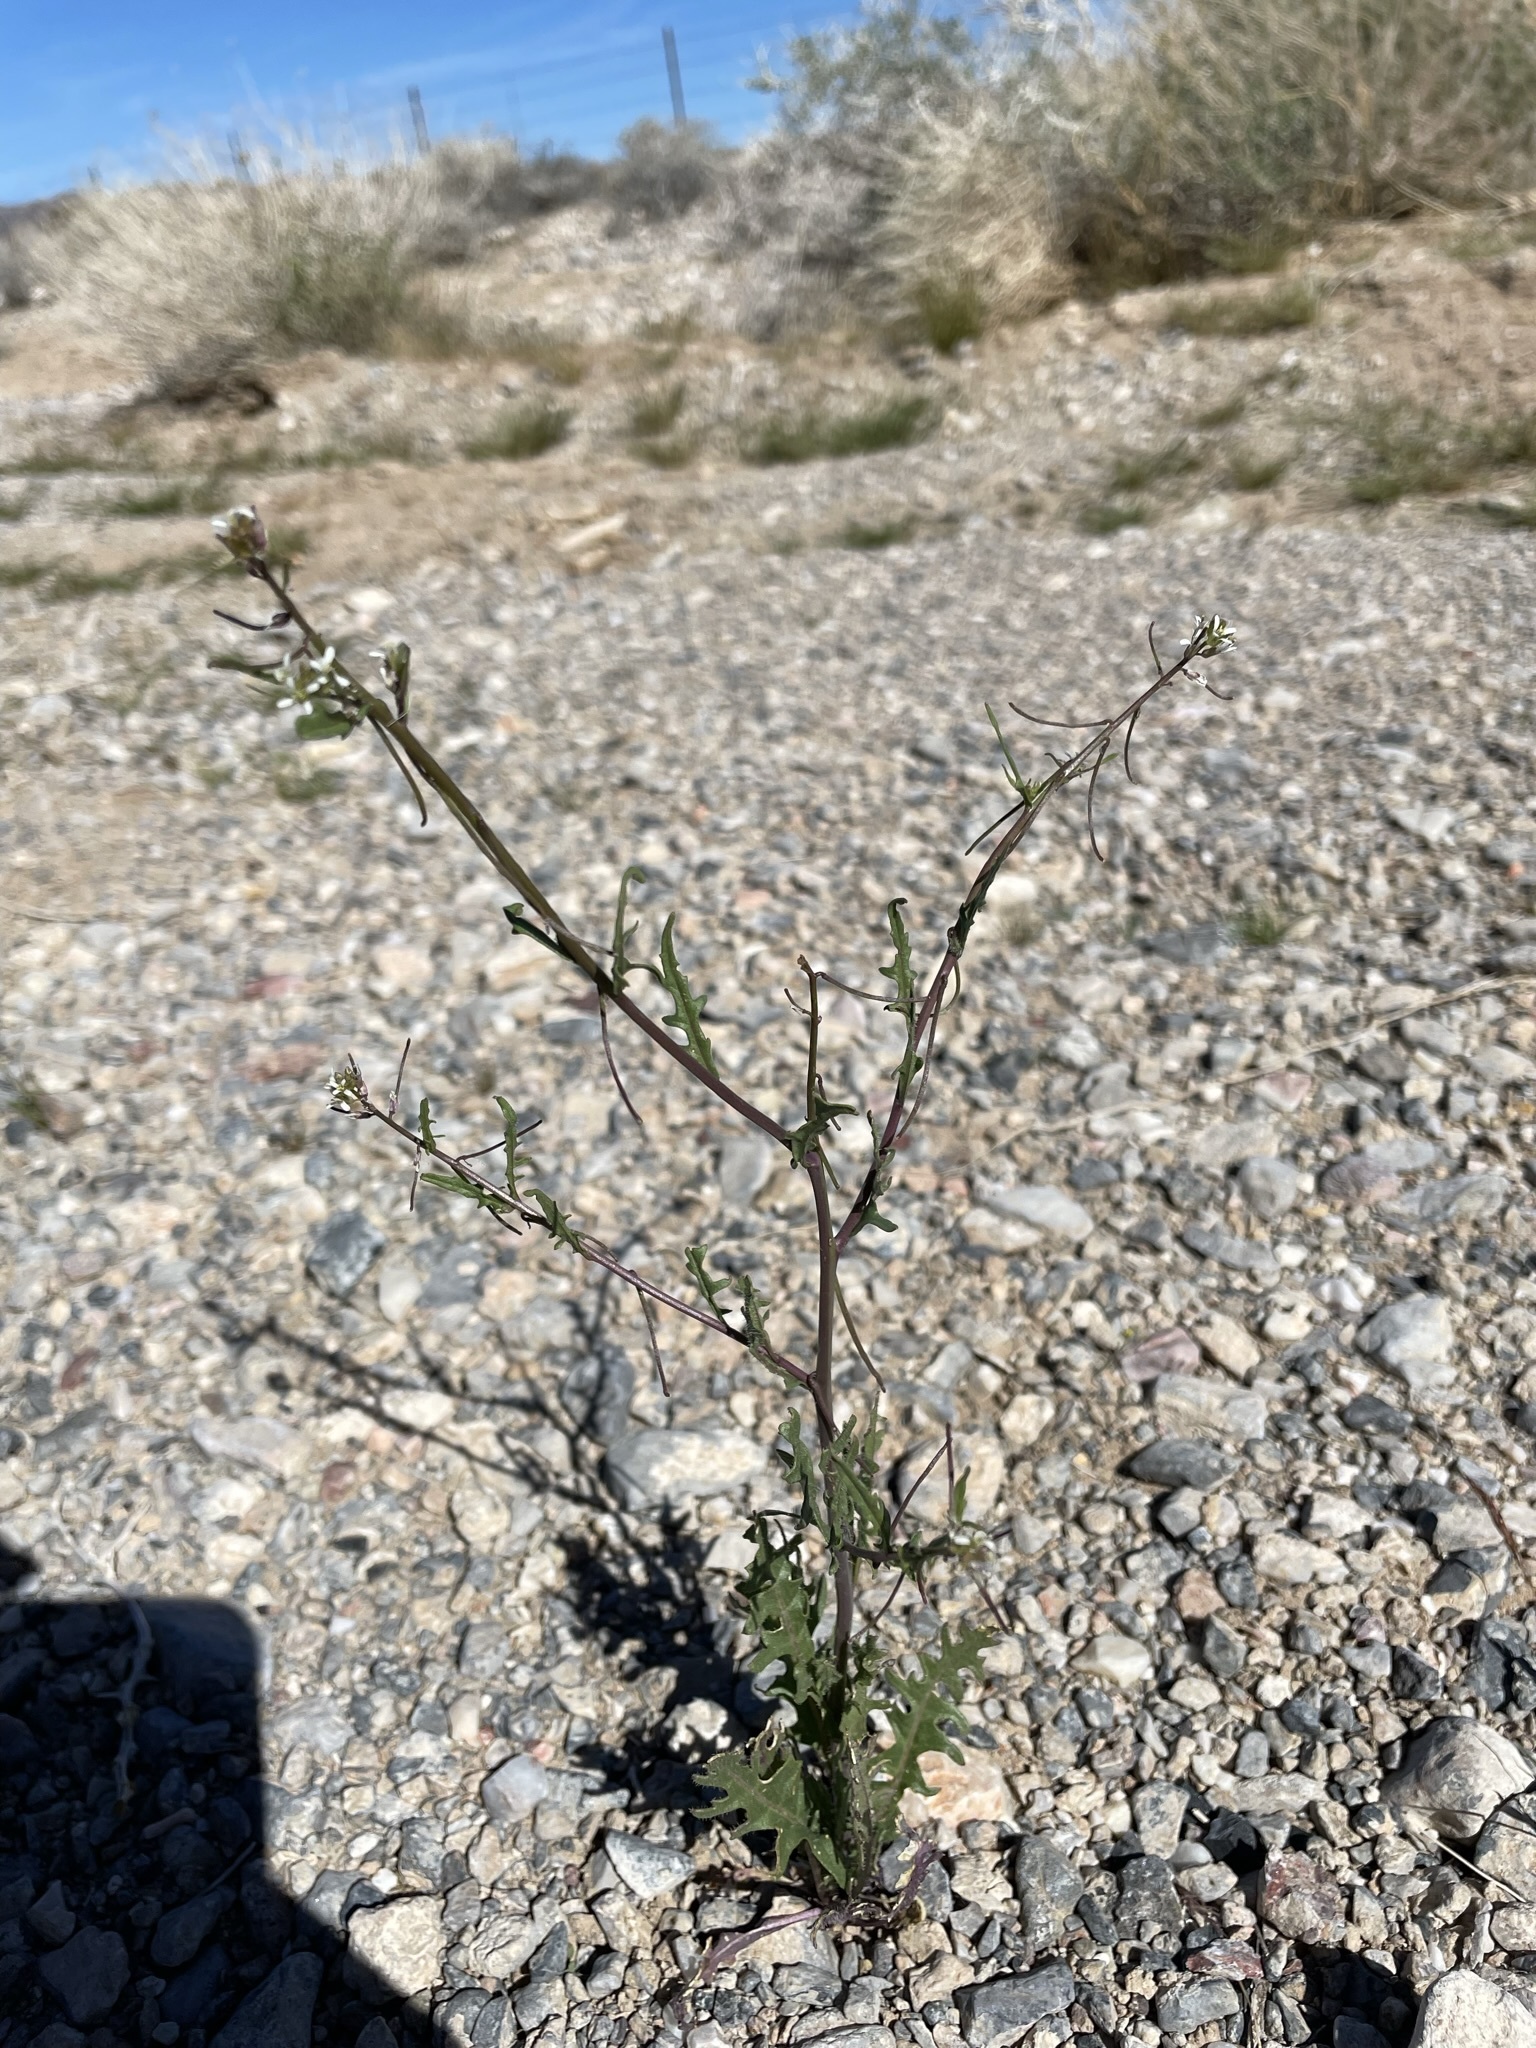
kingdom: Plantae
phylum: Tracheophyta
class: Magnoliopsida
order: Brassicales
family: Brassicaceae
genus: Streptanthus
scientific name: Streptanthus lasiophyllus
